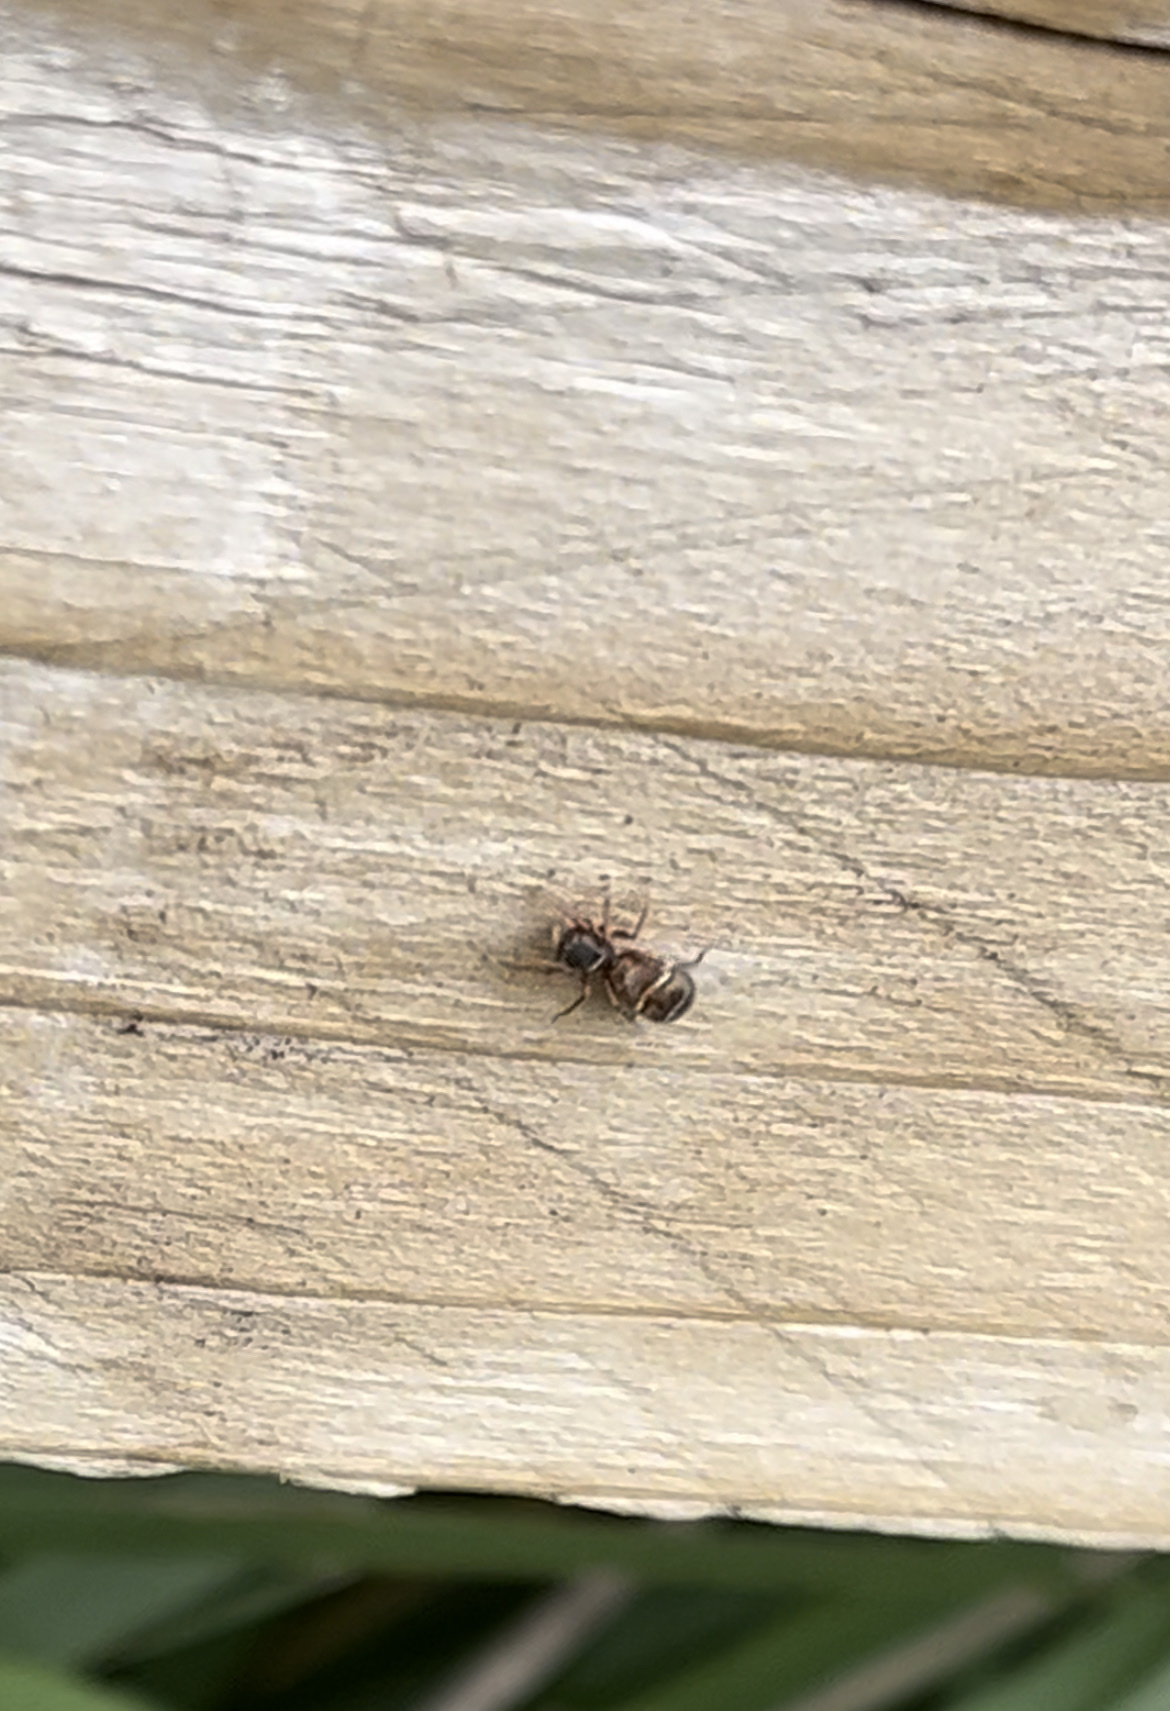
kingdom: Animalia
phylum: Arthropoda
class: Arachnida
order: Araneae
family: Salticidae
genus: Synageles
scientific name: Synageles venator
